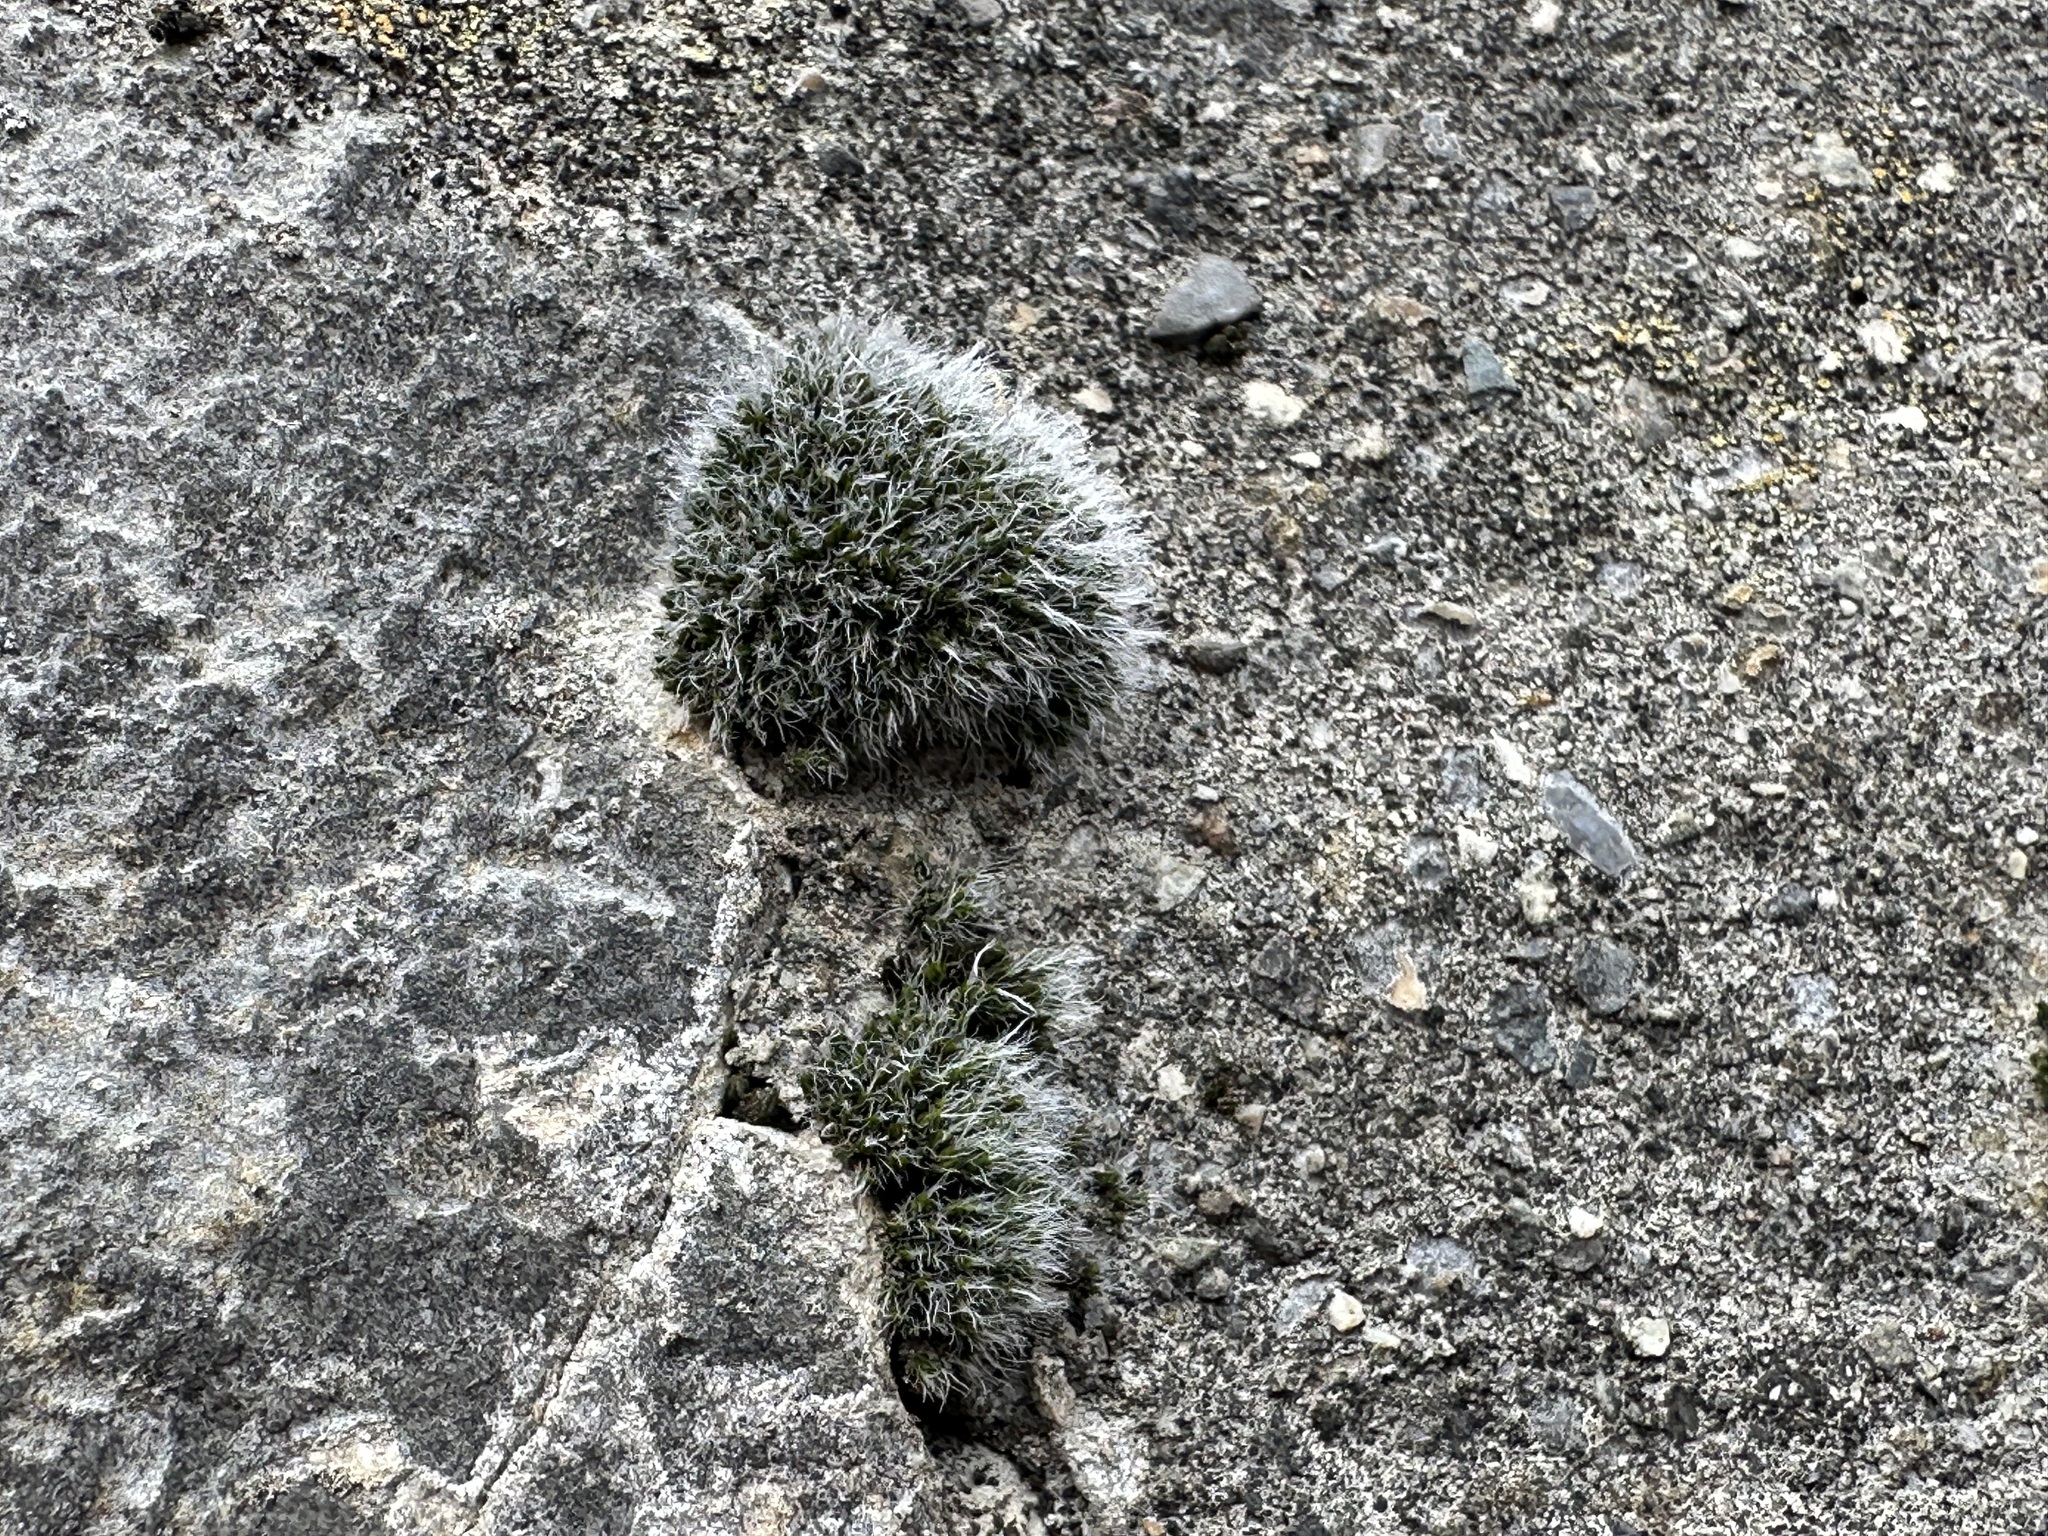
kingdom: Plantae
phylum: Bryophyta
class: Bryopsida
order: Grimmiales
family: Grimmiaceae
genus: Grimmia
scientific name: Grimmia pulvinata
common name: Grey-cushioned grimmia
